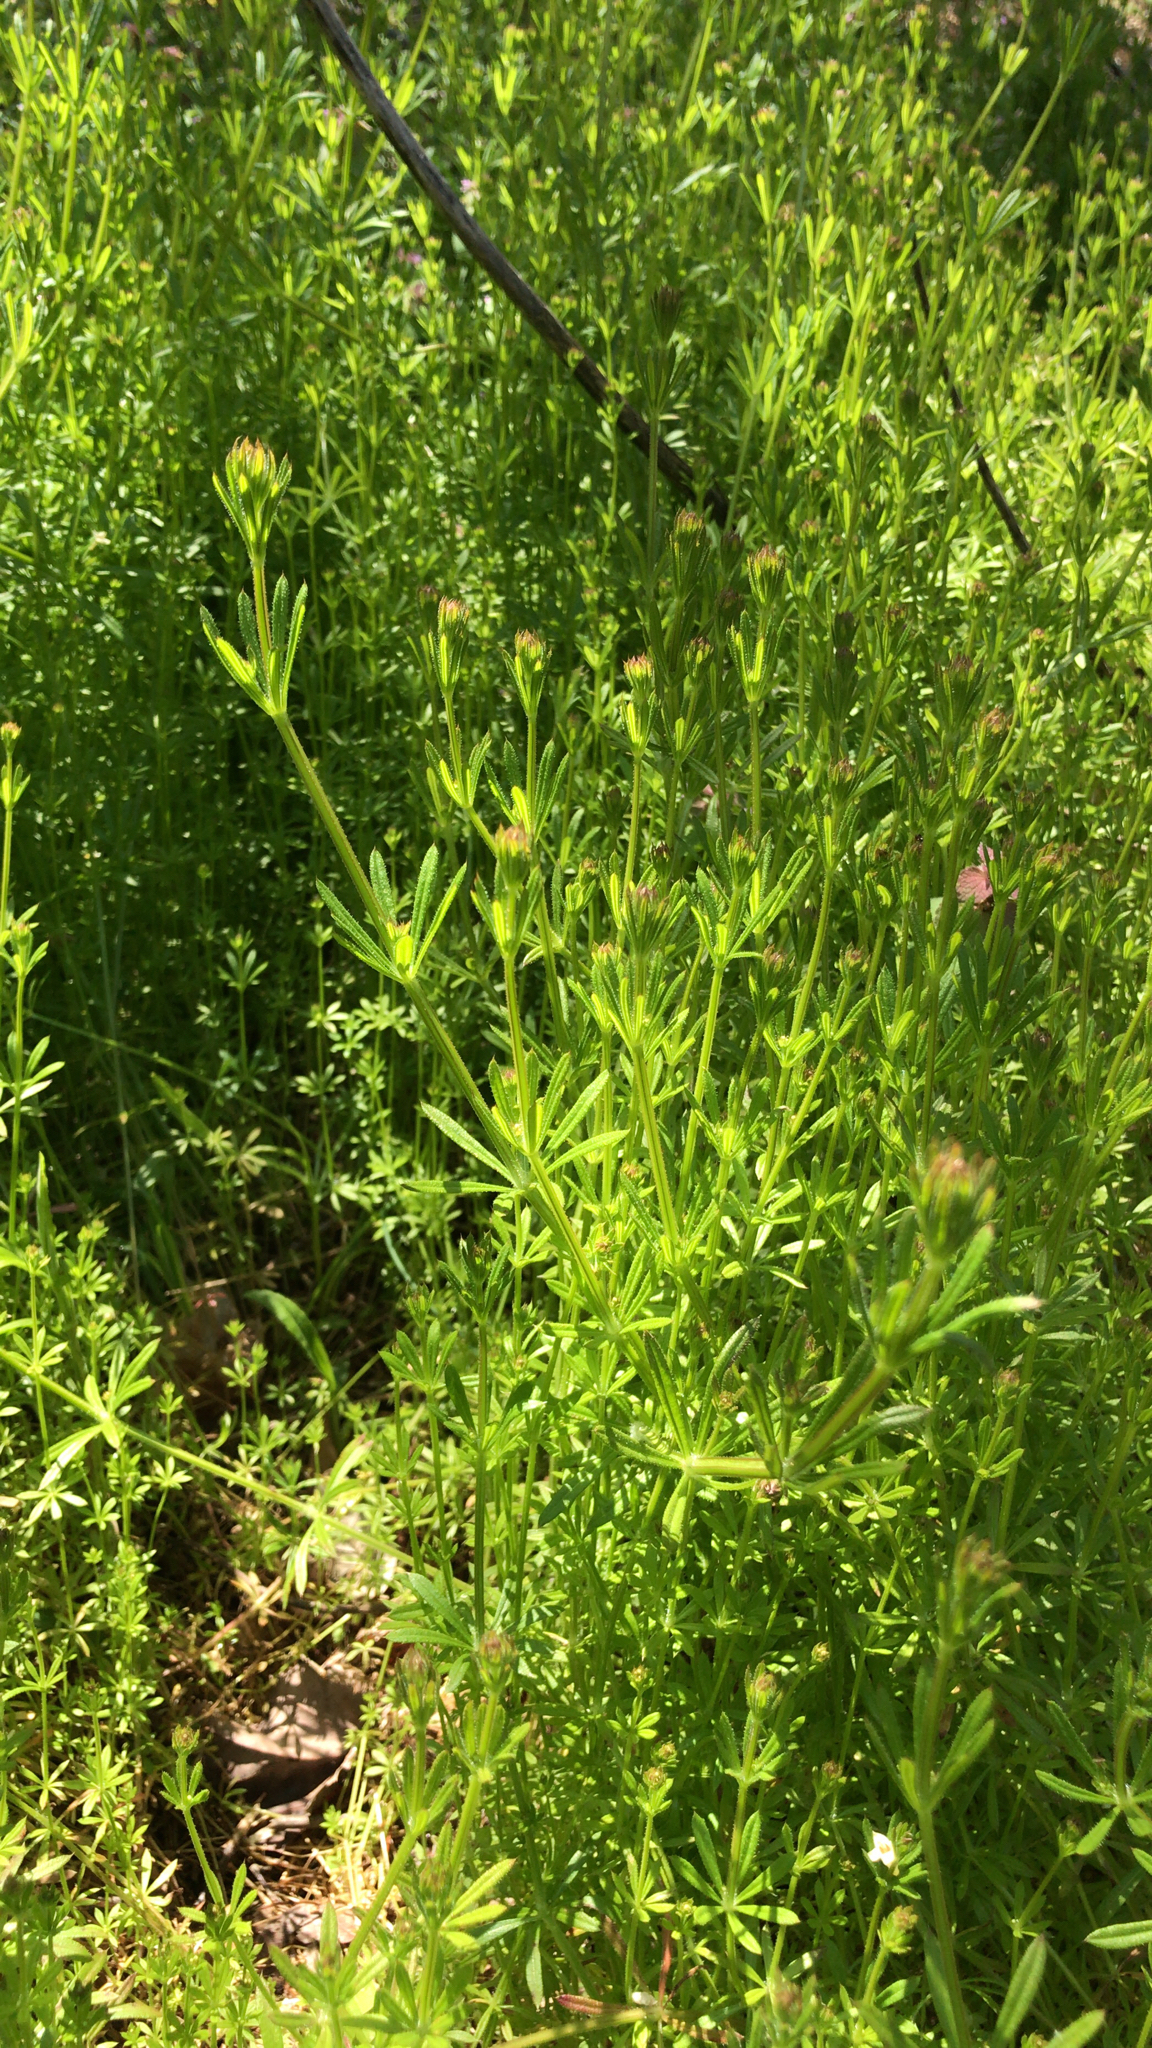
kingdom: Plantae
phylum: Tracheophyta
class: Magnoliopsida
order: Gentianales
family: Rubiaceae
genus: Galium
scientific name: Galium aparine
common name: Cleavers
